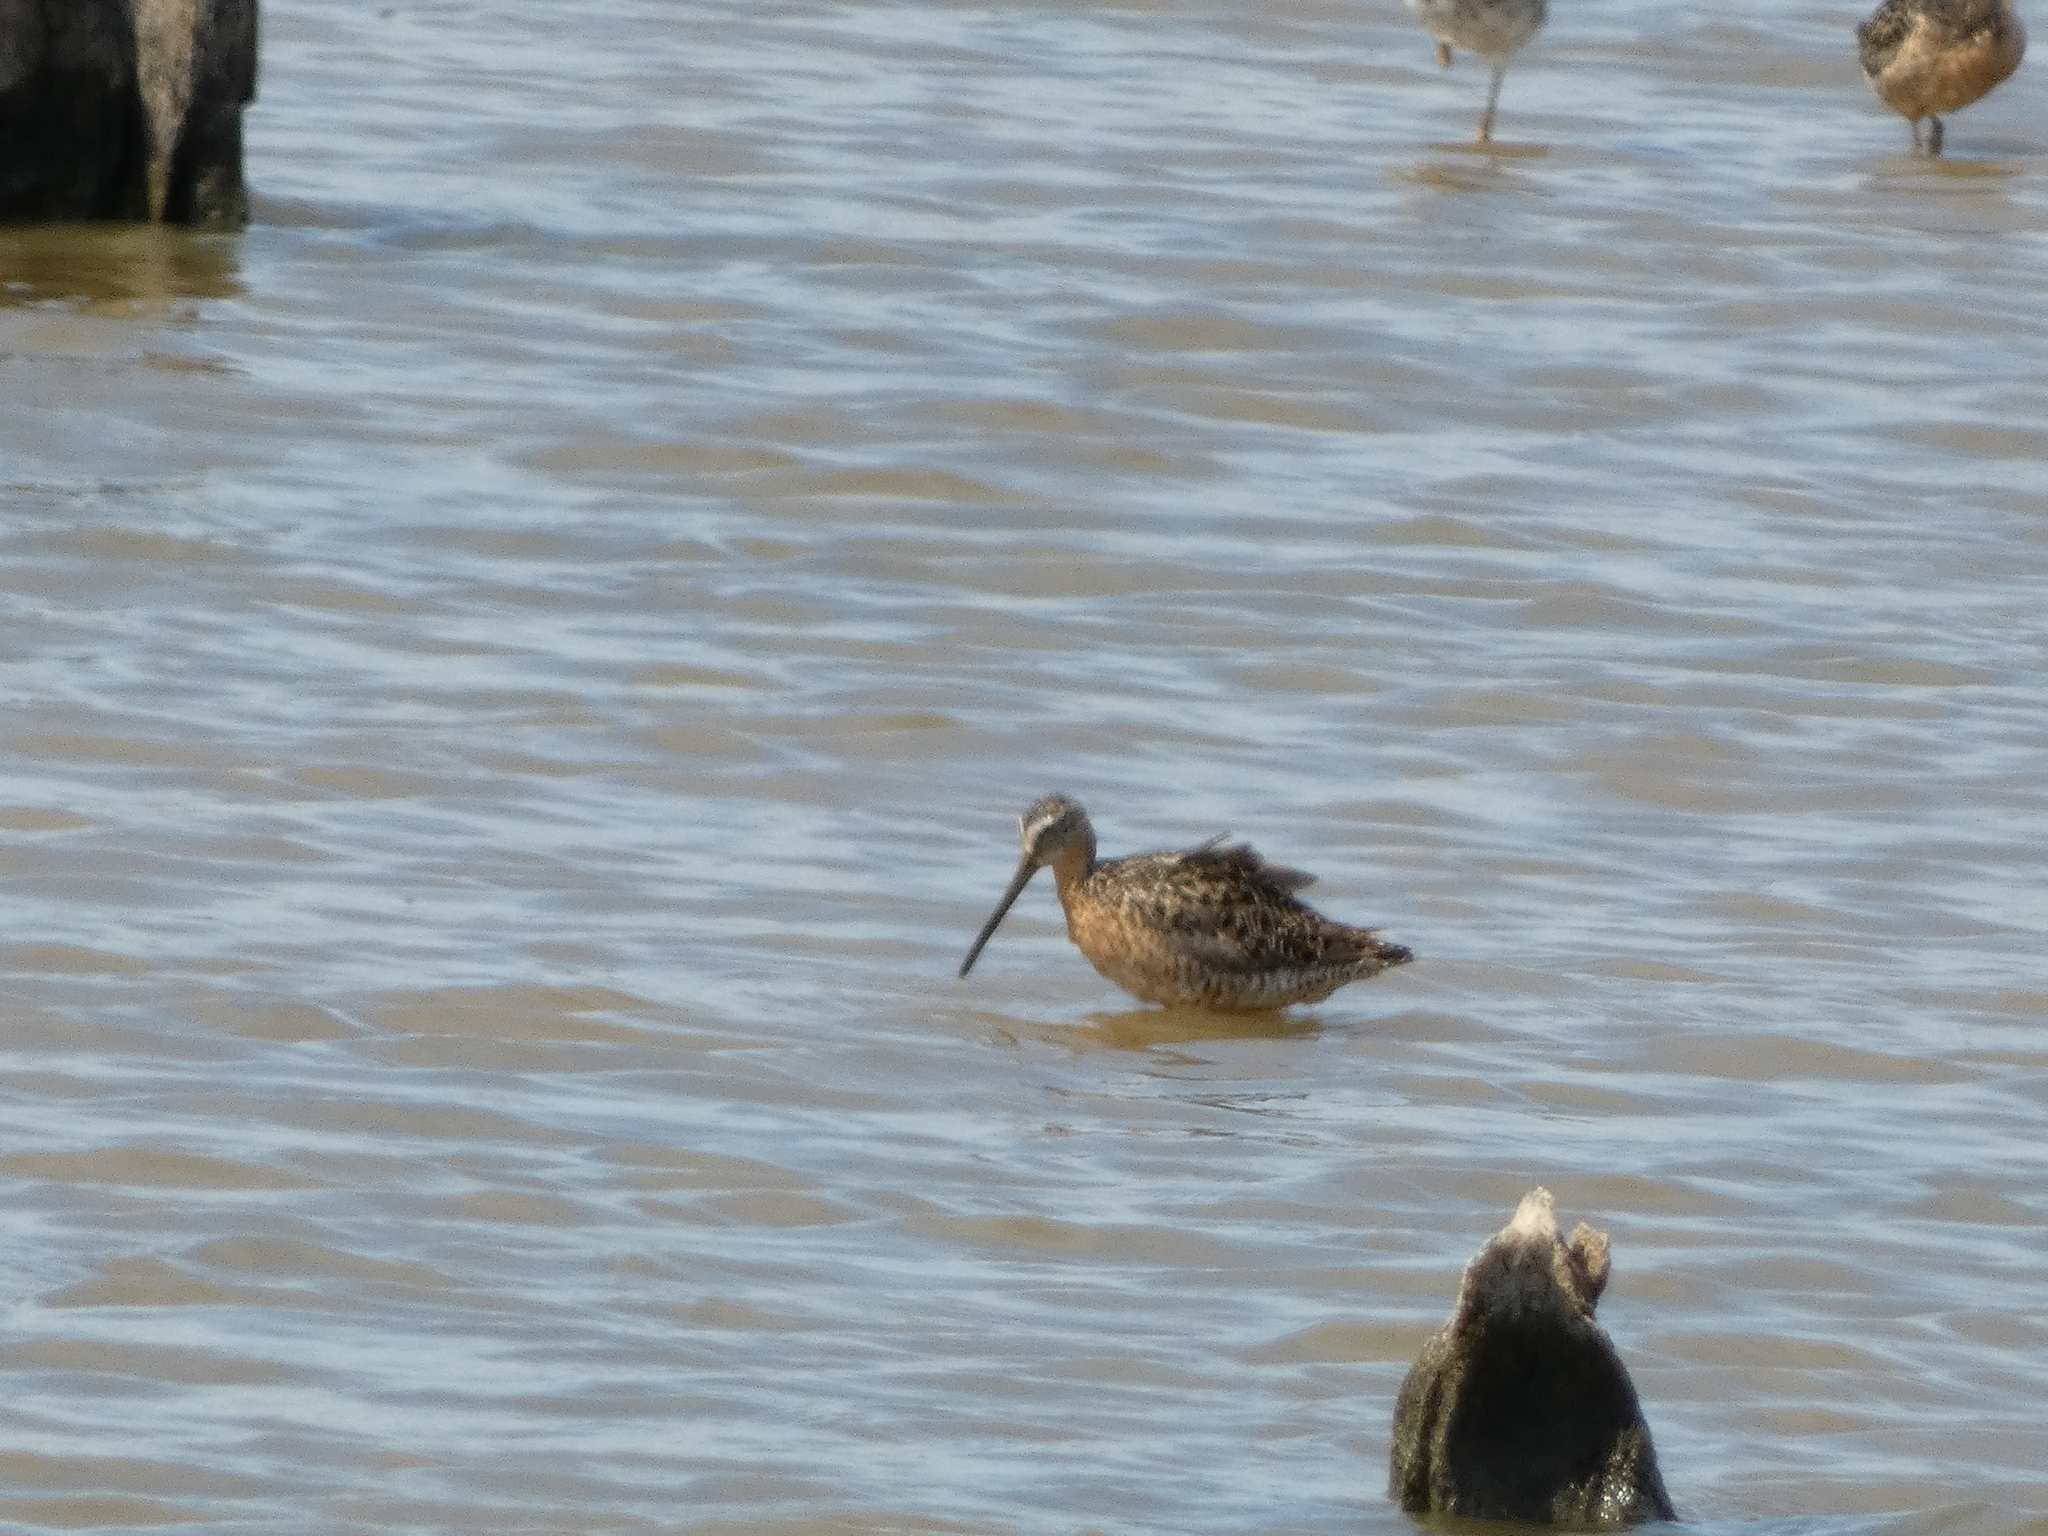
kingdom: Animalia
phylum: Chordata
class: Aves
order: Charadriiformes
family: Scolopacidae
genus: Limnodromus
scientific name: Limnodromus scolopaceus
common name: Long-billed dowitcher
